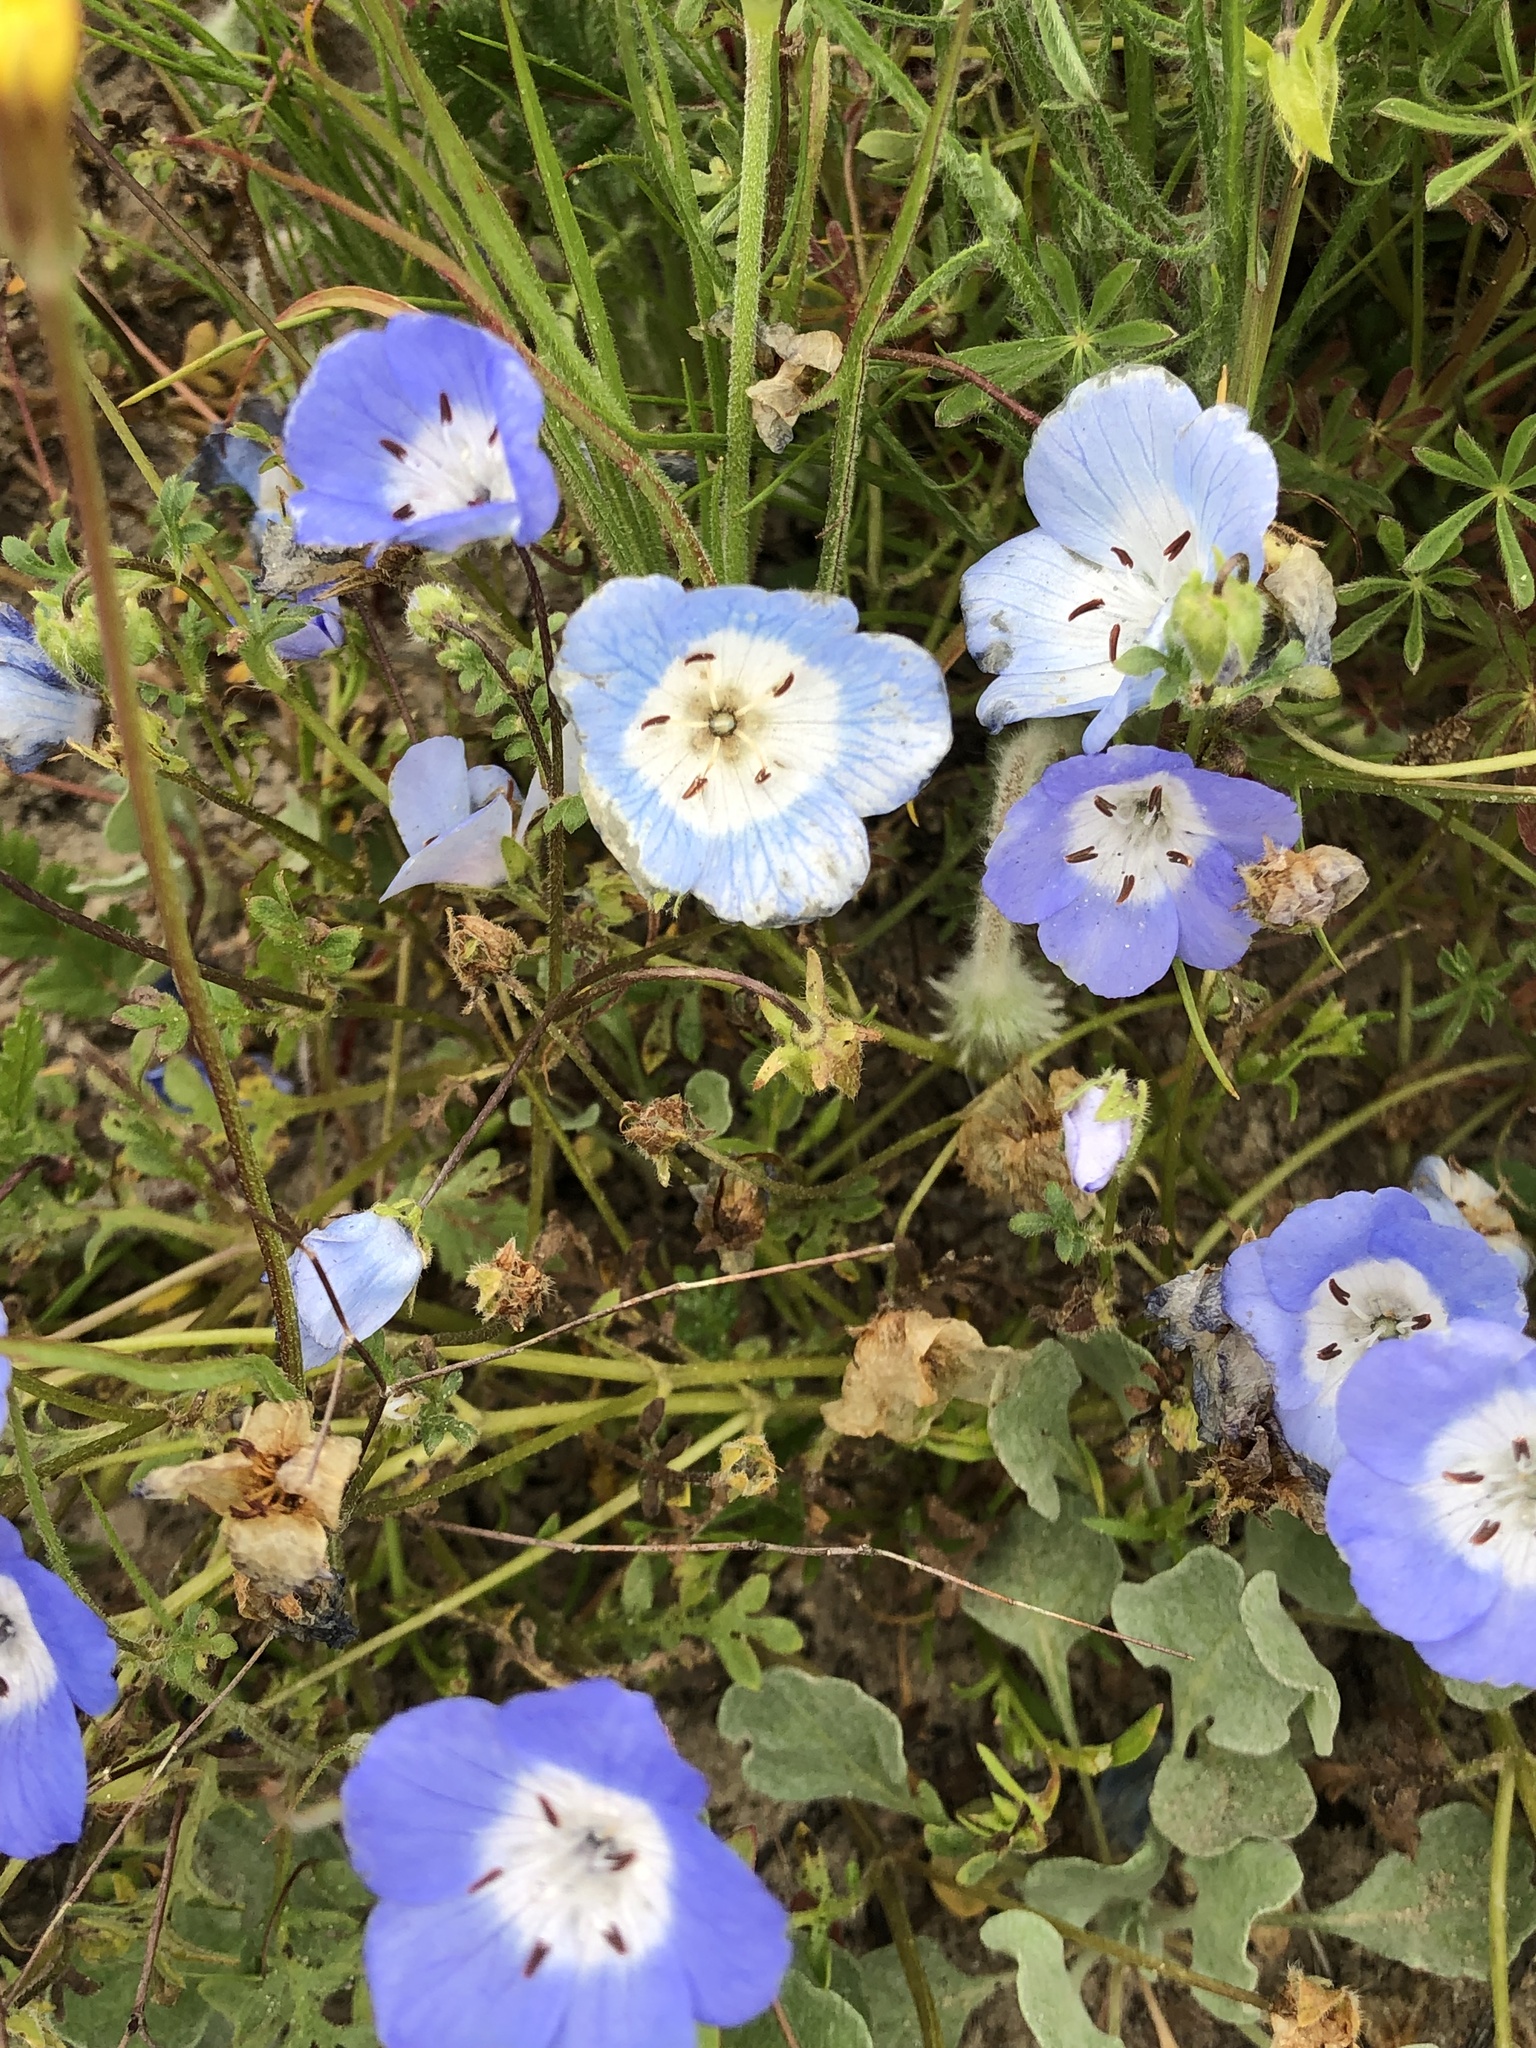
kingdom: Plantae
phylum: Tracheophyta
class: Magnoliopsida
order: Boraginales
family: Hydrophyllaceae
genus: Nemophila
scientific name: Nemophila menziesii
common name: Baby's-blue-eyes
